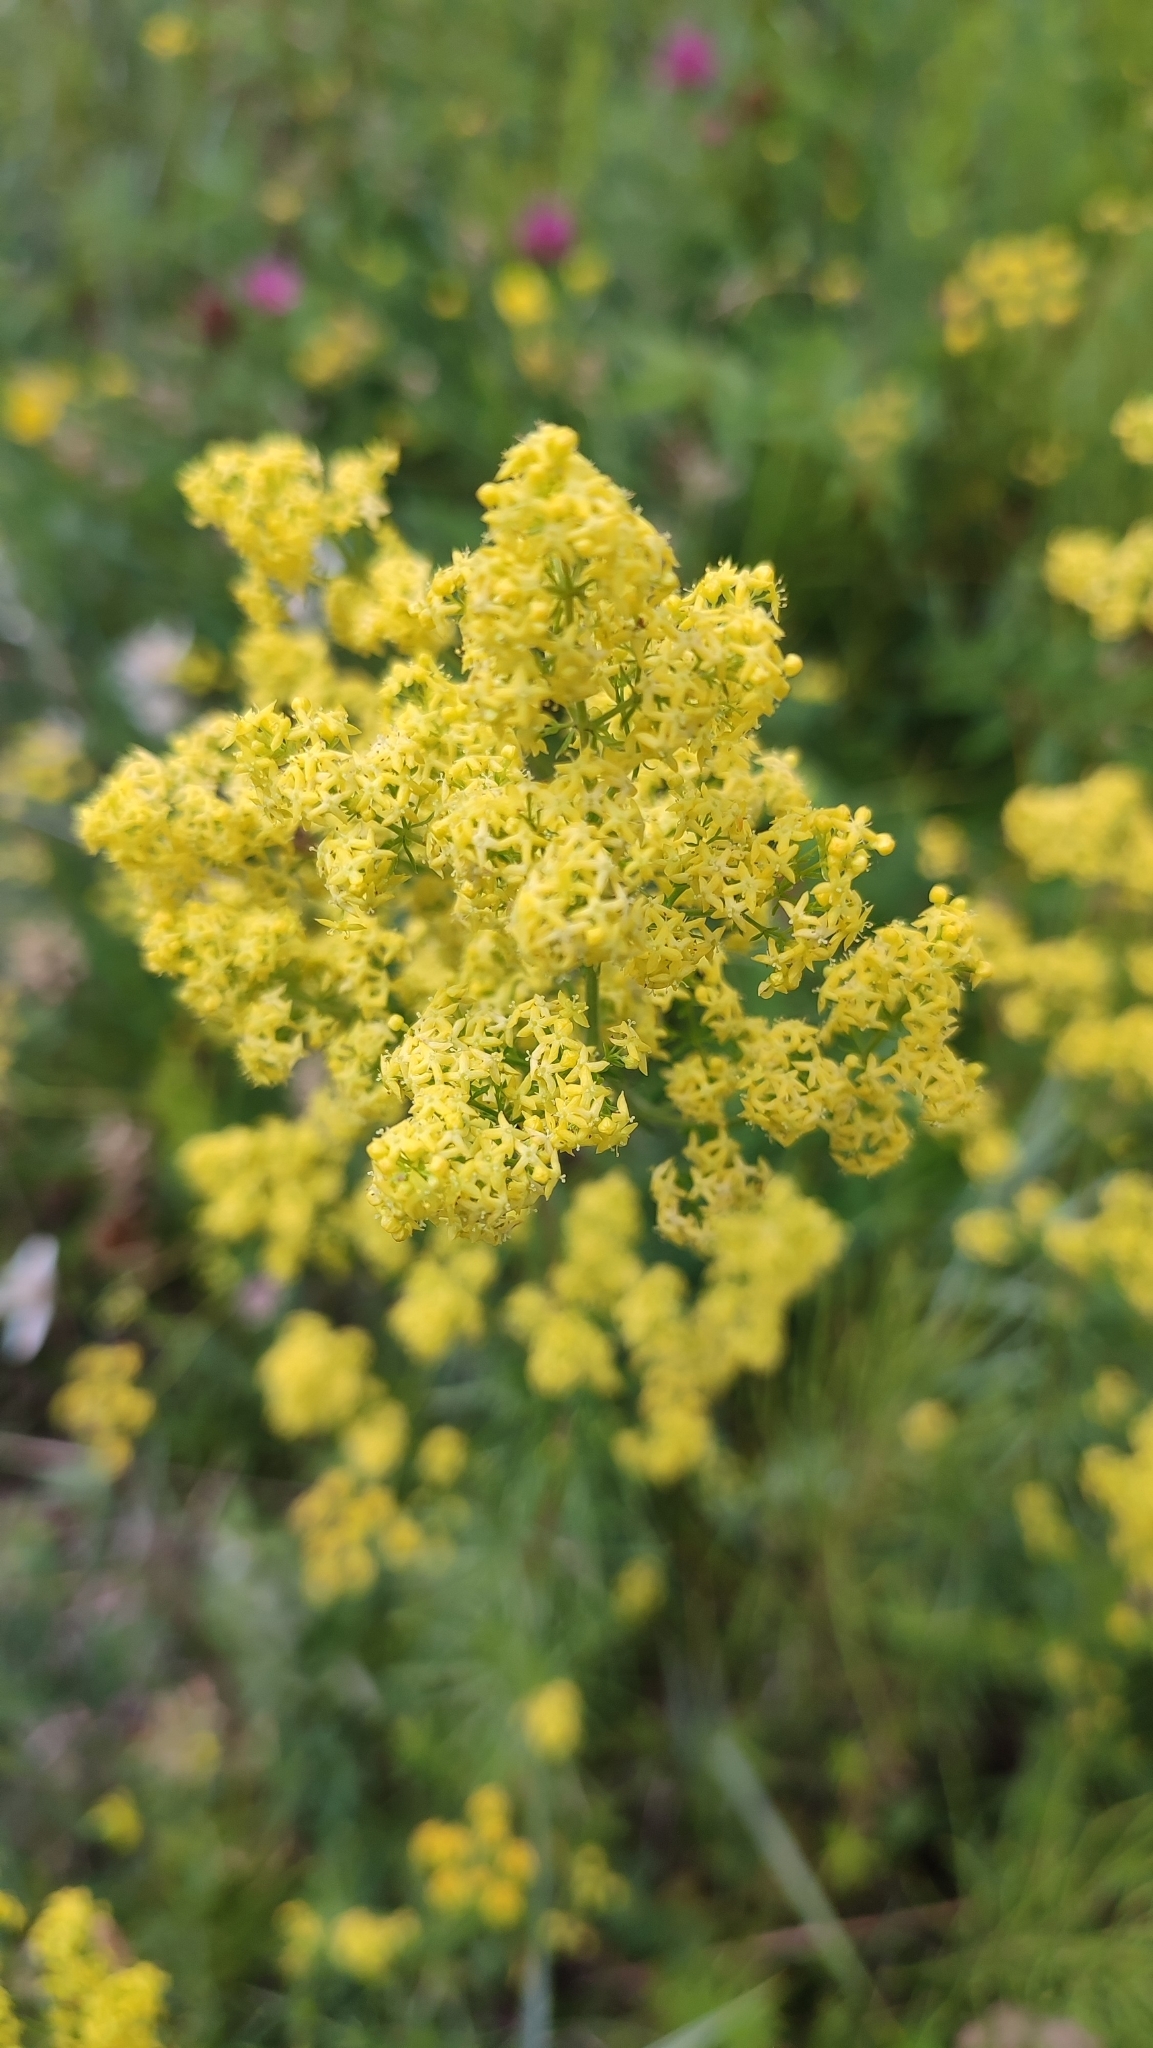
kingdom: Plantae
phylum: Tracheophyta
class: Magnoliopsida
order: Gentianales
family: Rubiaceae
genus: Galium
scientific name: Galium verum
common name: Lady's bedstraw
